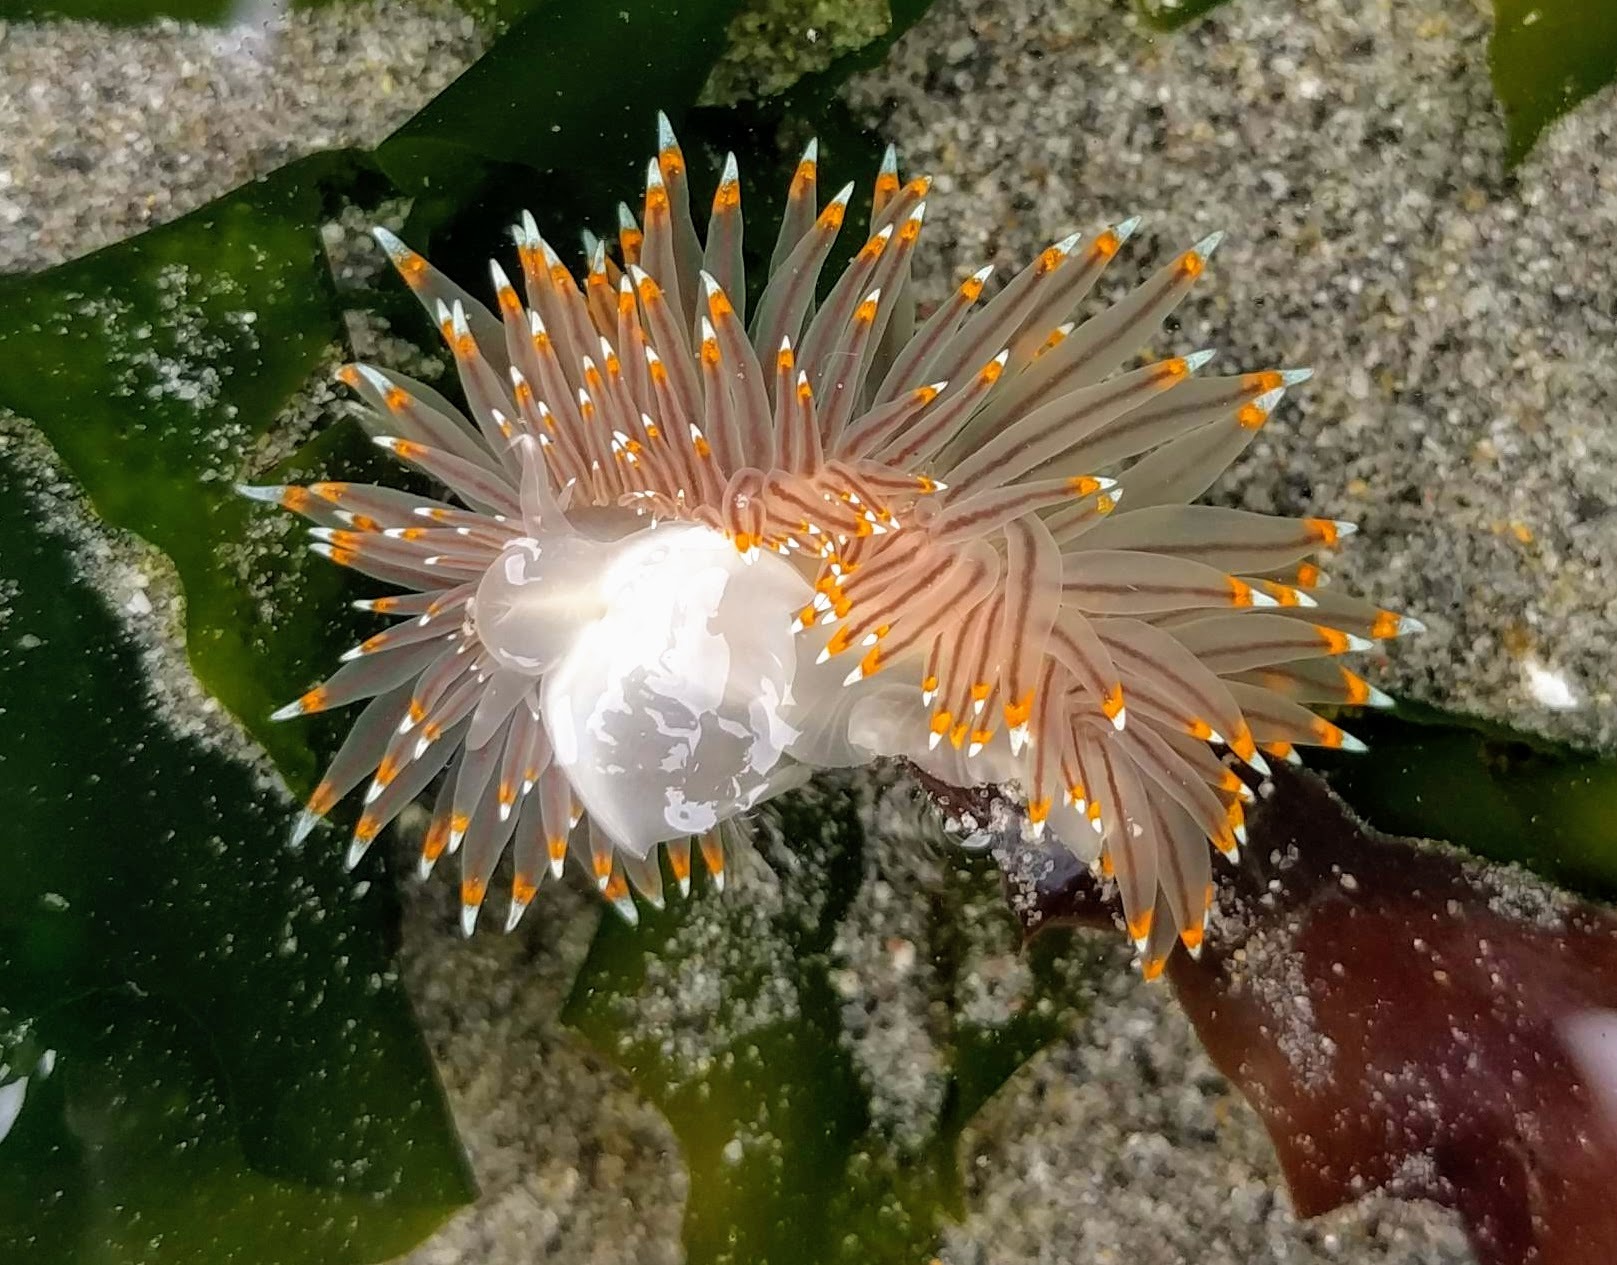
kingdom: Animalia
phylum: Mollusca
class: Gastropoda
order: Nudibranchia
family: Janolidae
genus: Antiopella
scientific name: Antiopella fusca
